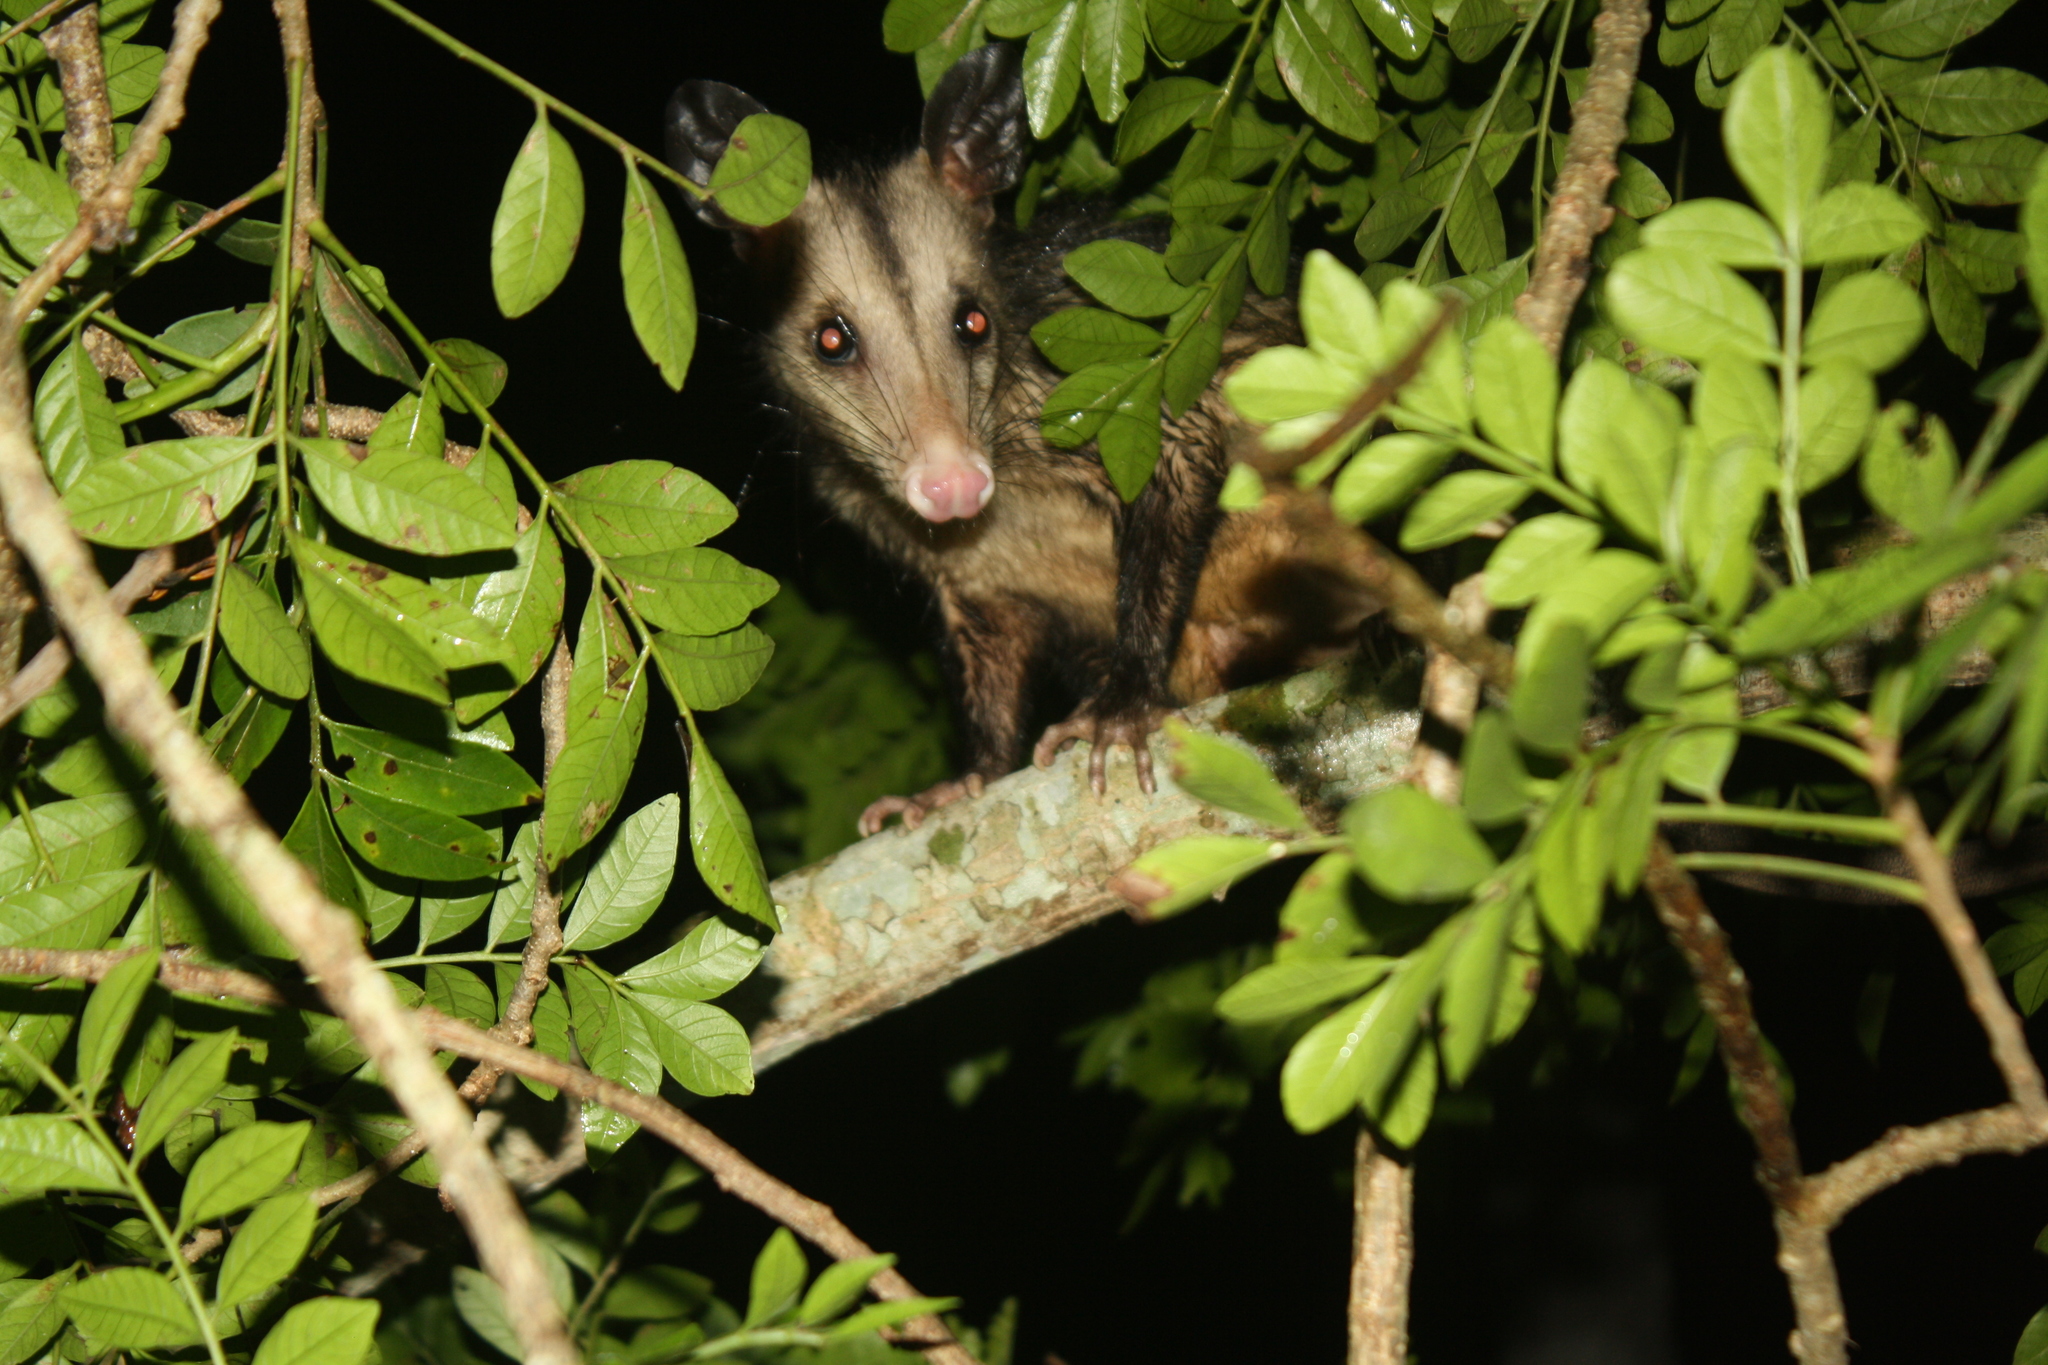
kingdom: Animalia
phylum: Chordata
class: Mammalia
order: Didelphimorphia
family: Didelphidae
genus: Didelphis
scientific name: Didelphis marsupialis
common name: Common opossum
